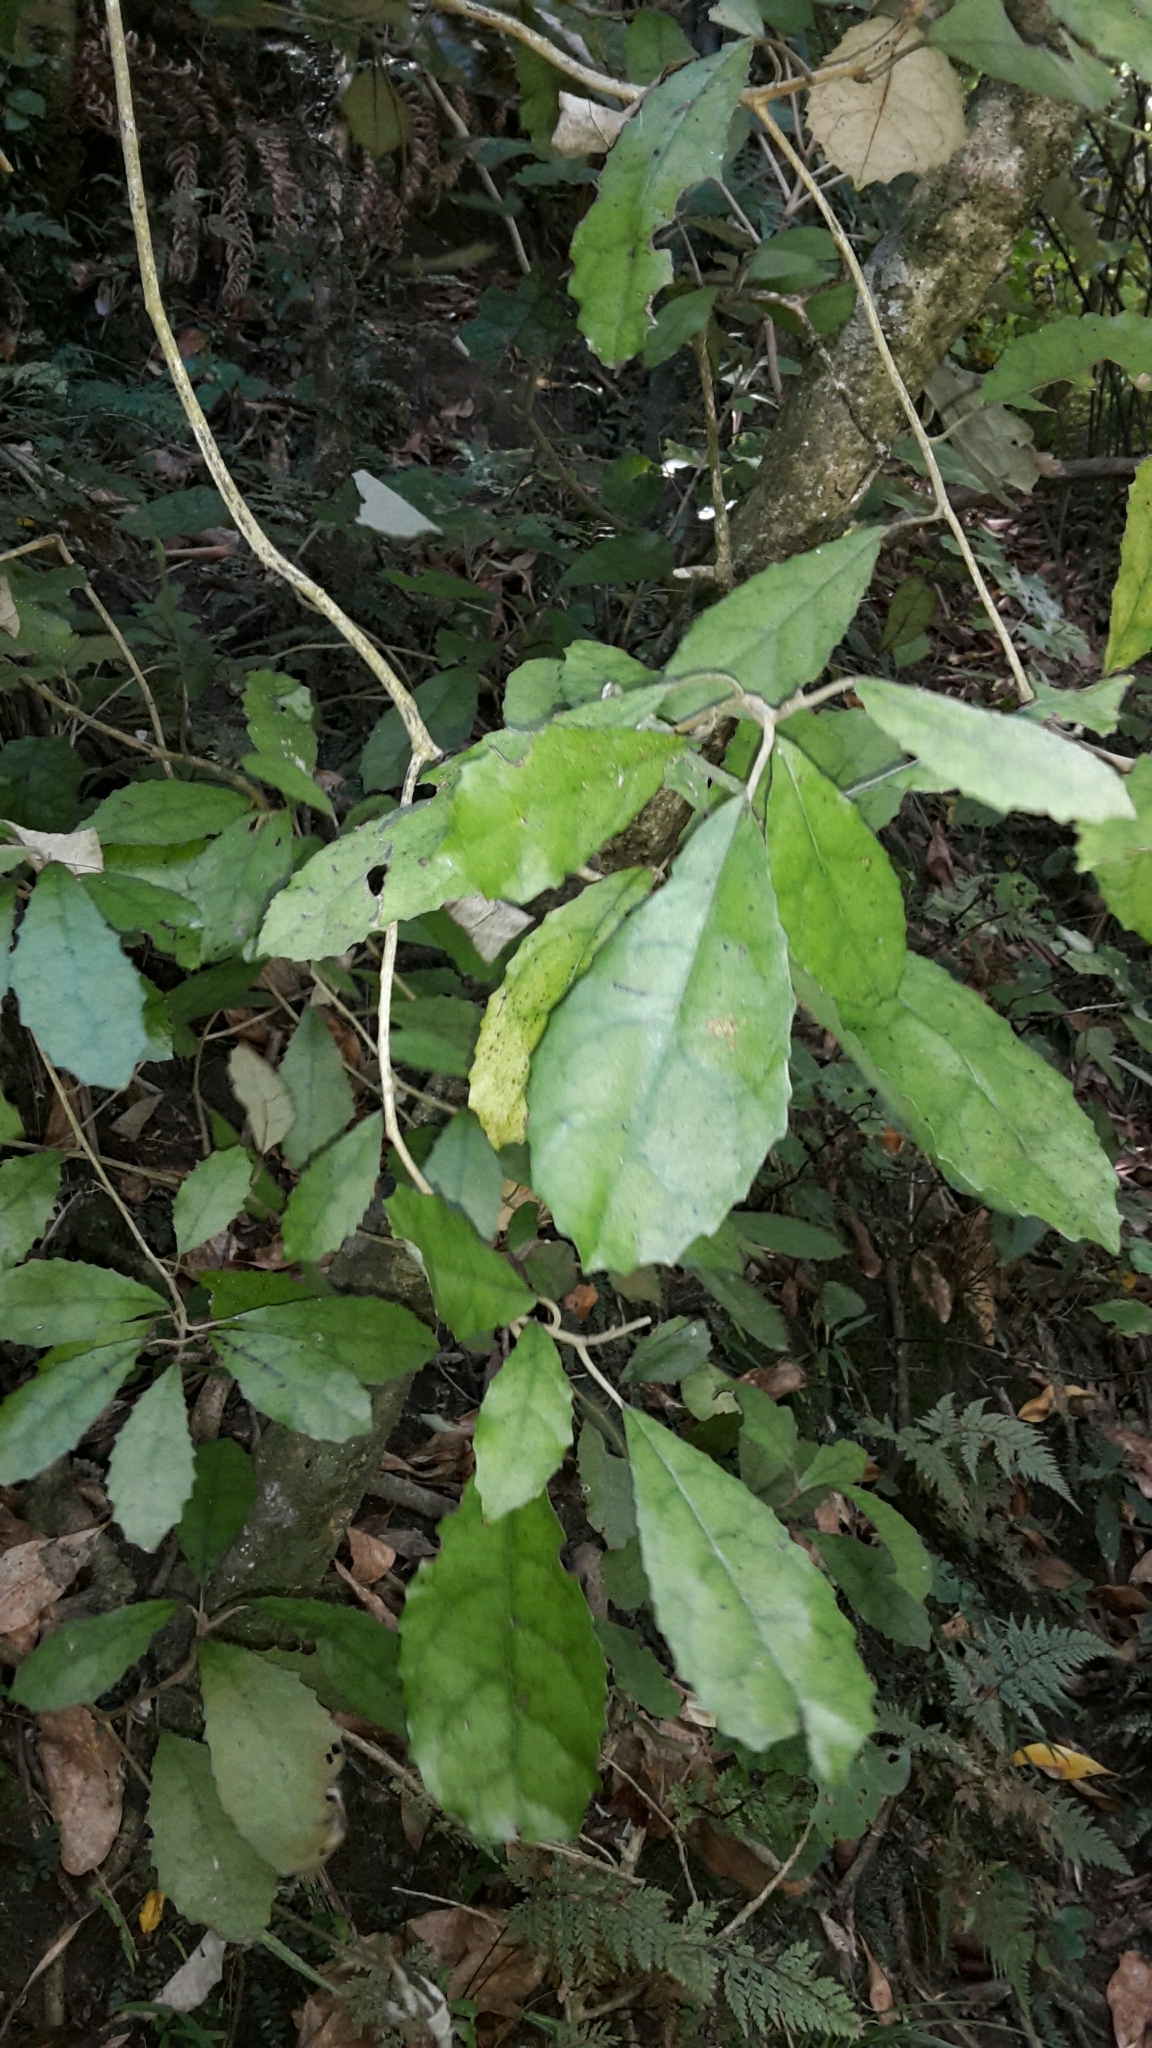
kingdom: Plantae
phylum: Tracheophyta
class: Magnoliopsida
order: Asterales
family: Asteraceae
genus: Olearia
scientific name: Olearia rani
